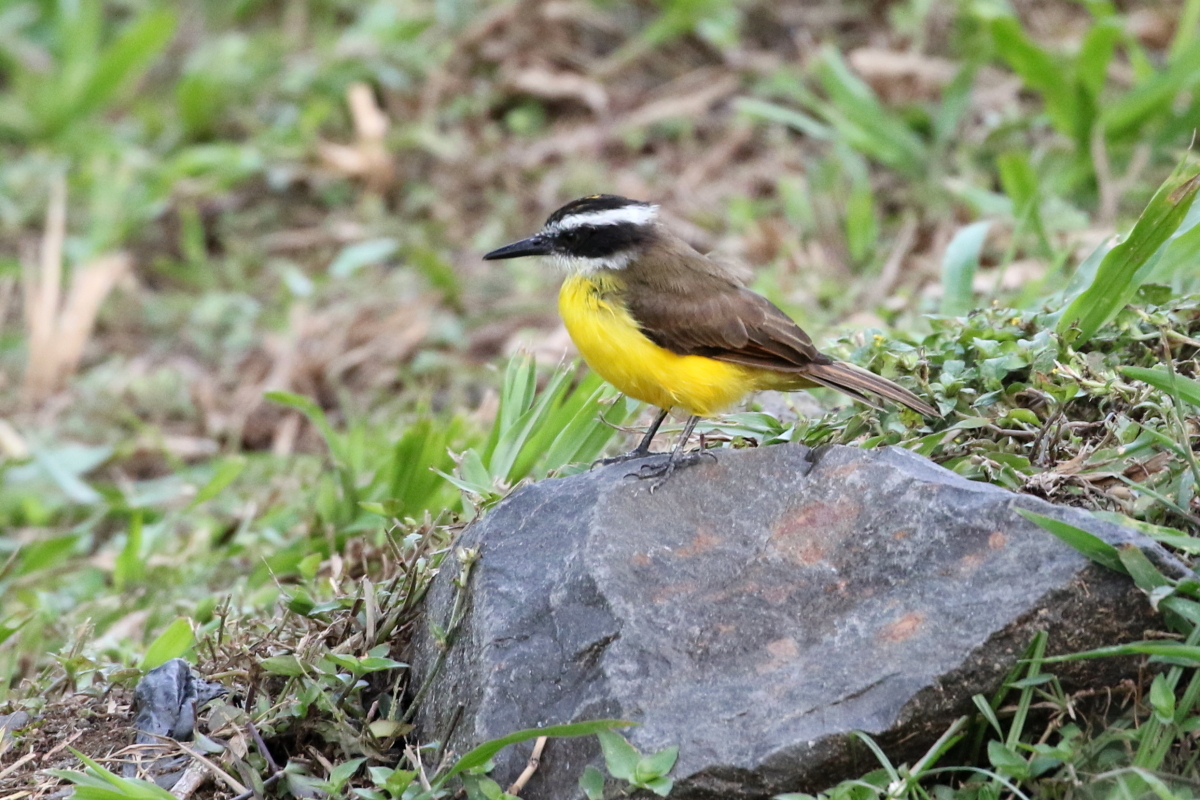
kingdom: Animalia
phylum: Chordata
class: Aves
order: Passeriformes
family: Tyrannidae
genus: Pitangus
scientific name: Pitangus lictor
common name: Lesser kiskadee
